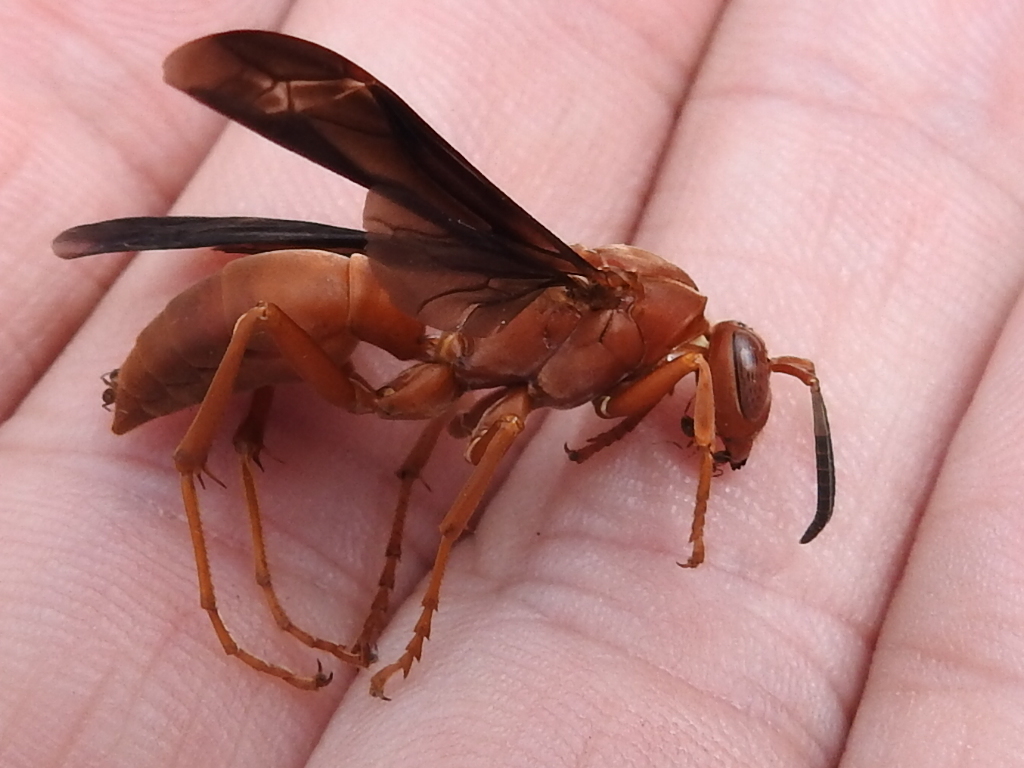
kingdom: Animalia
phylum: Arthropoda
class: Insecta
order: Hymenoptera
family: Eumenidae
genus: Polistes
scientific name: Polistes carolina
